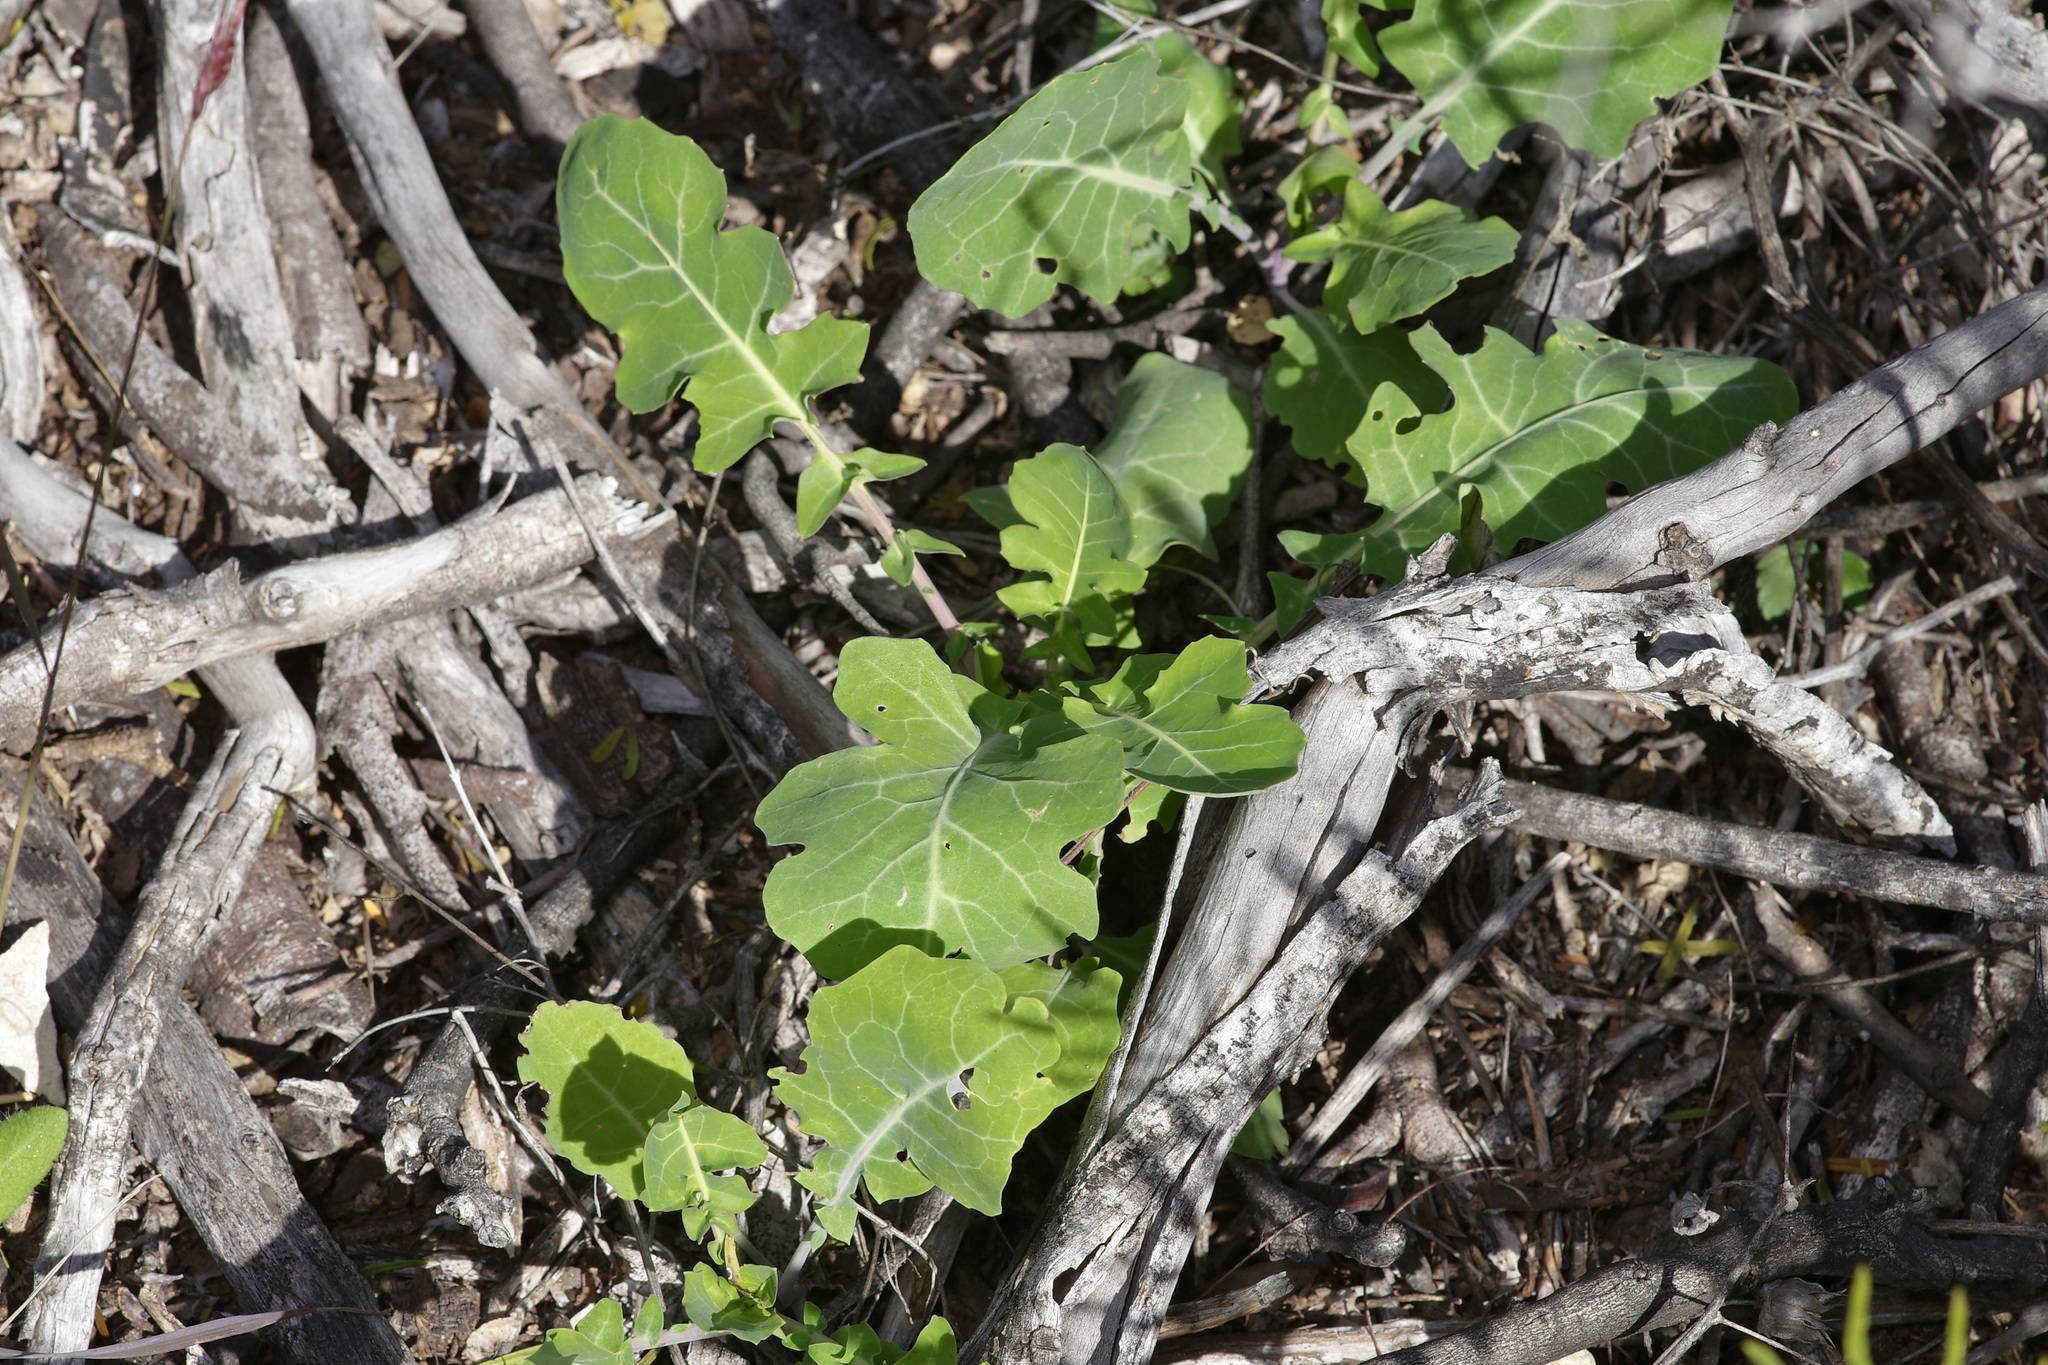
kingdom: Plantae
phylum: Tracheophyta
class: Magnoliopsida
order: Brassicales
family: Brassicaceae
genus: Streptanthus
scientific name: Streptanthus carinatus
